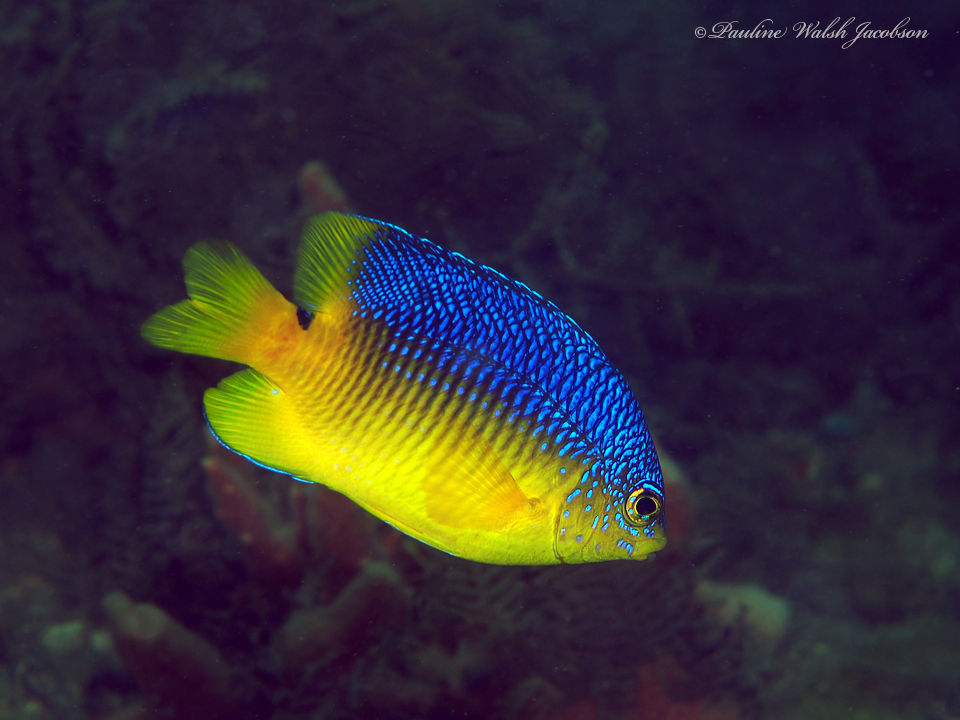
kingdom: Animalia
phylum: Chordata
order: Perciformes
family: Pomacentridae
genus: Stegastes
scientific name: Stegastes xanthurus
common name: Cocoa damselfish
